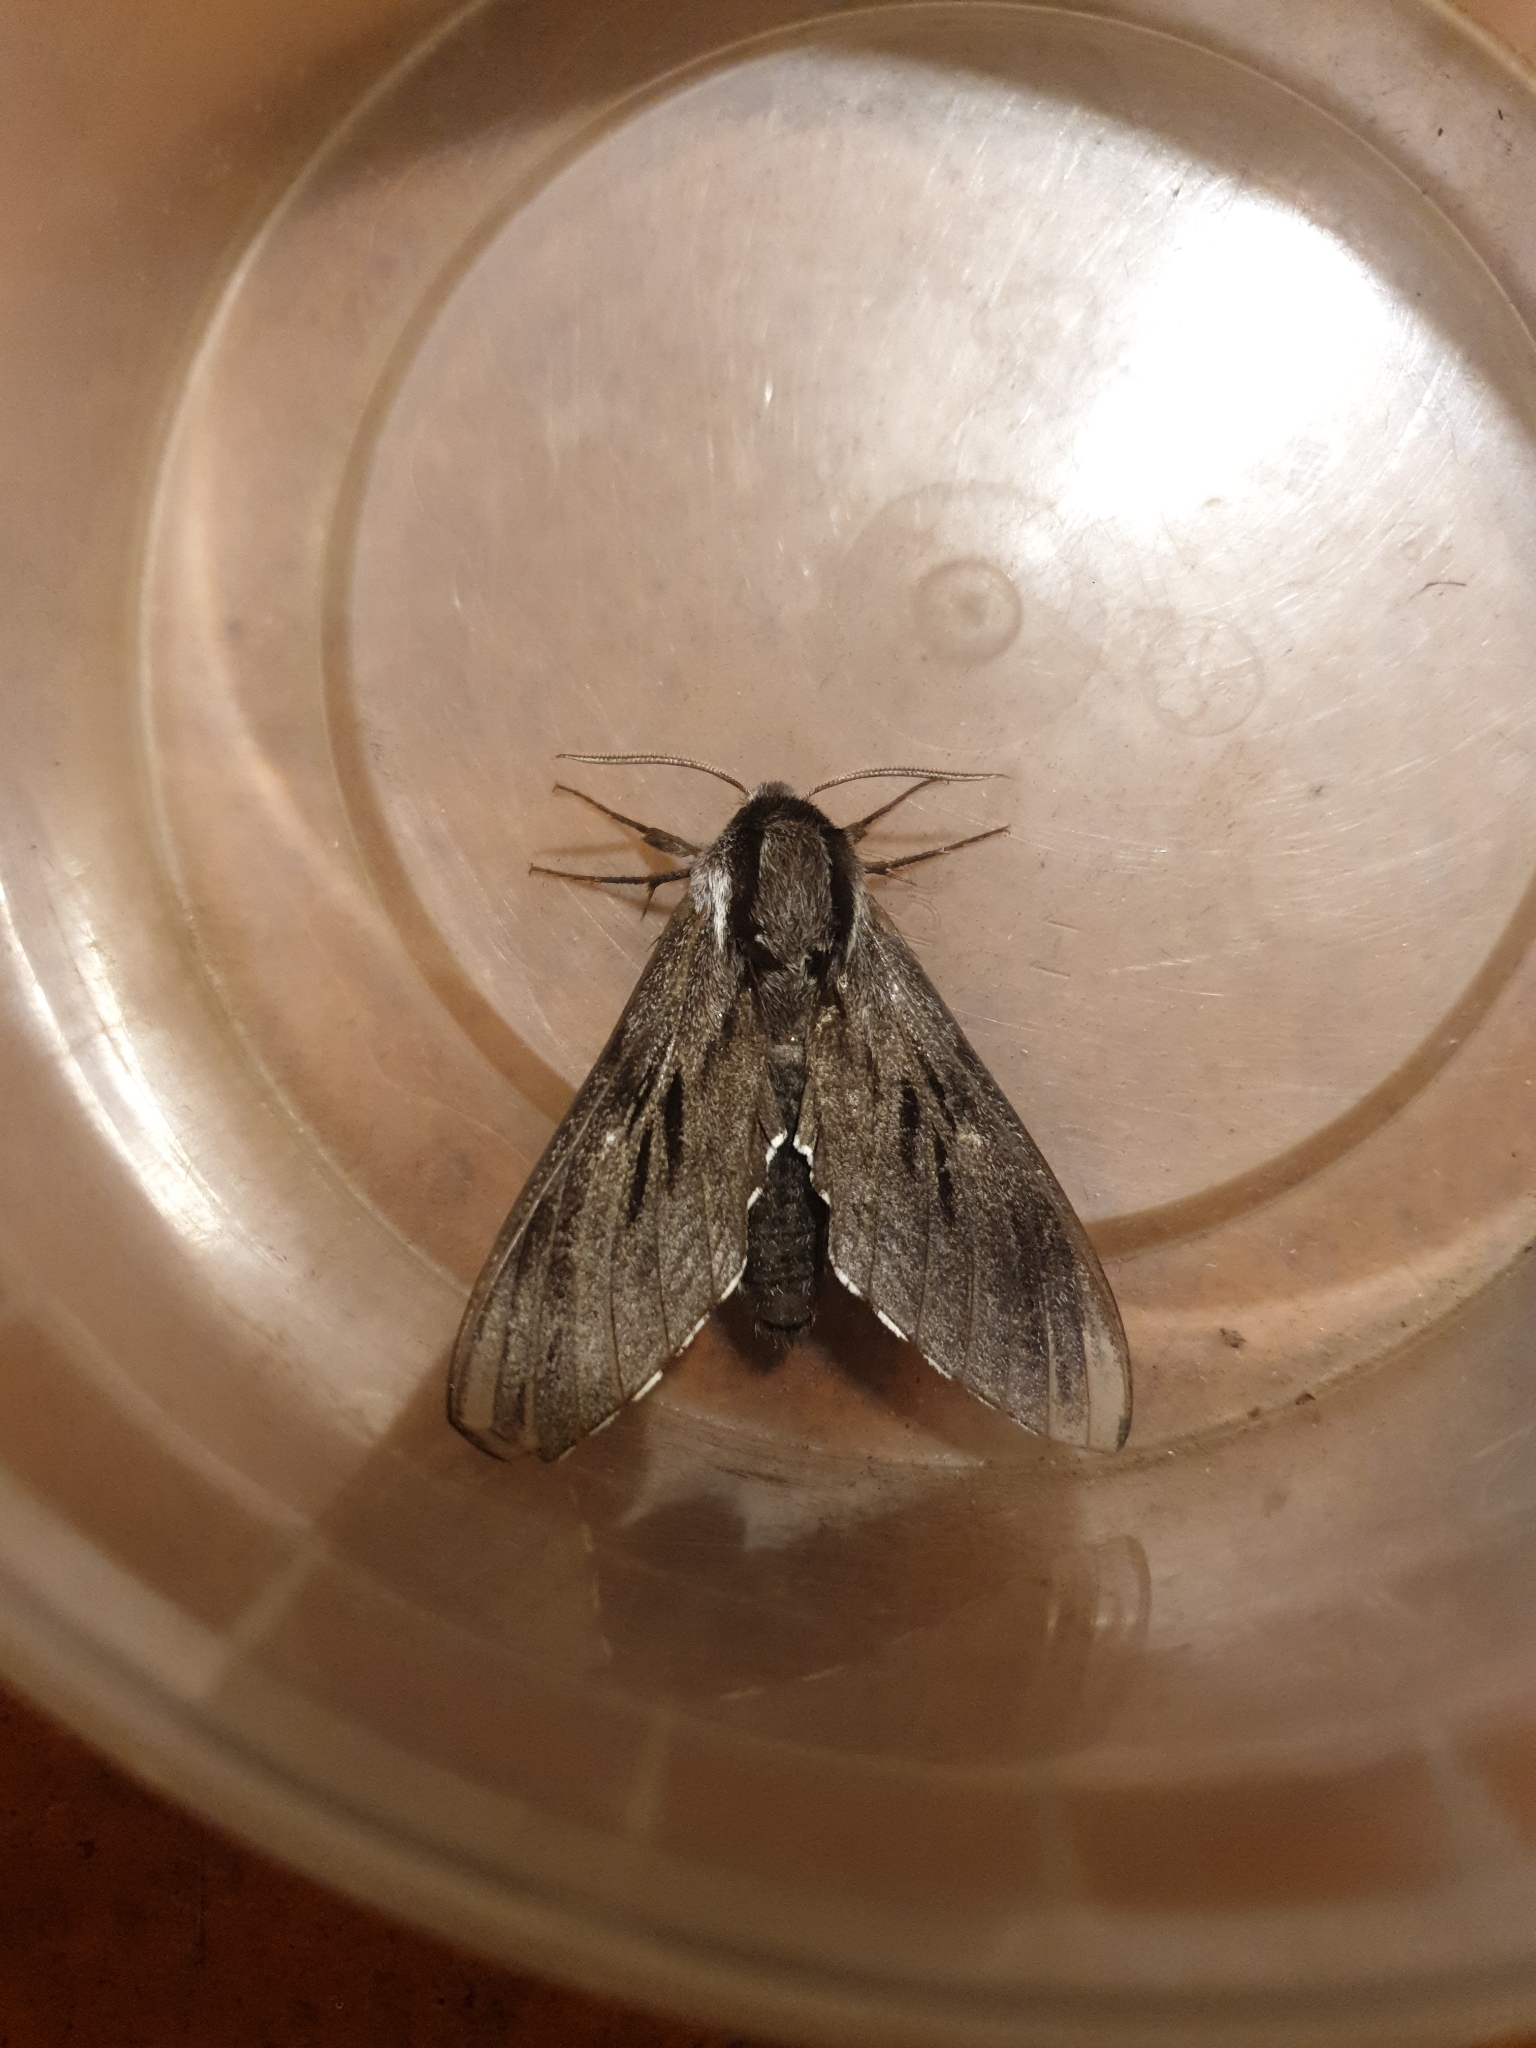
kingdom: Animalia
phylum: Arthropoda
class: Insecta
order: Lepidoptera
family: Sphingidae
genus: Sphinx
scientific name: Sphinx pinastri
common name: Pine hawk-moth
